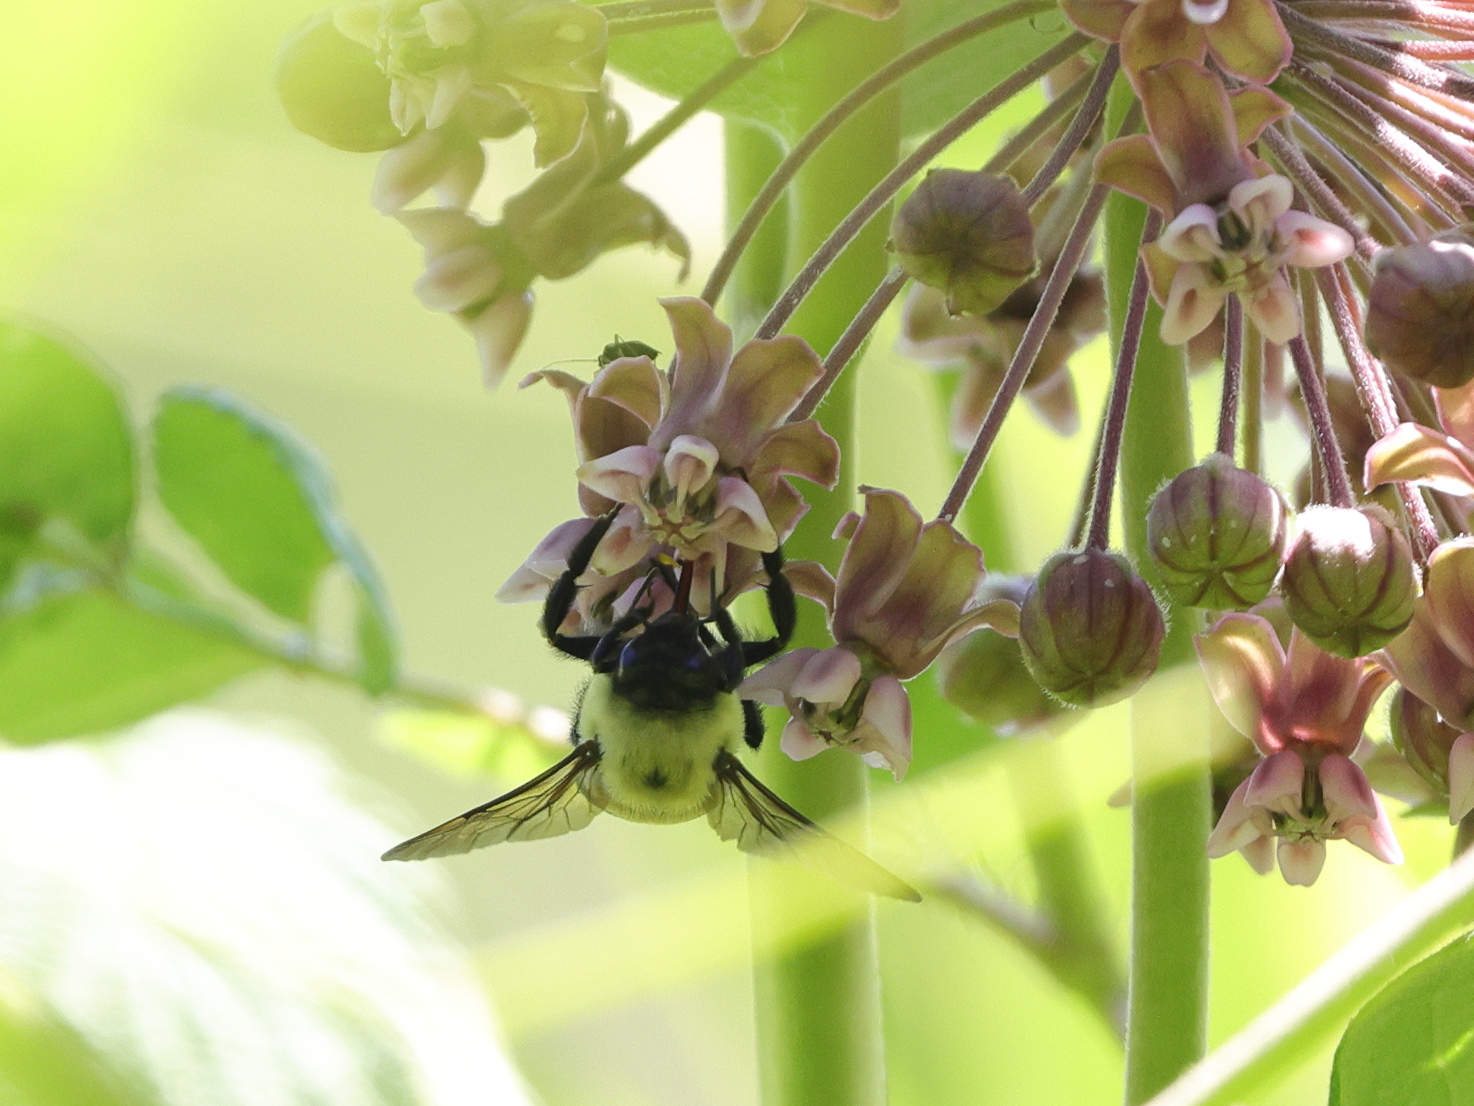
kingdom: Animalia
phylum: Arthropoda
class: Insecta
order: Hymenoptera
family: Apidae
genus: Bombus
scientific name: Bombus griseocollis
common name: Brown-belted bumble bee
